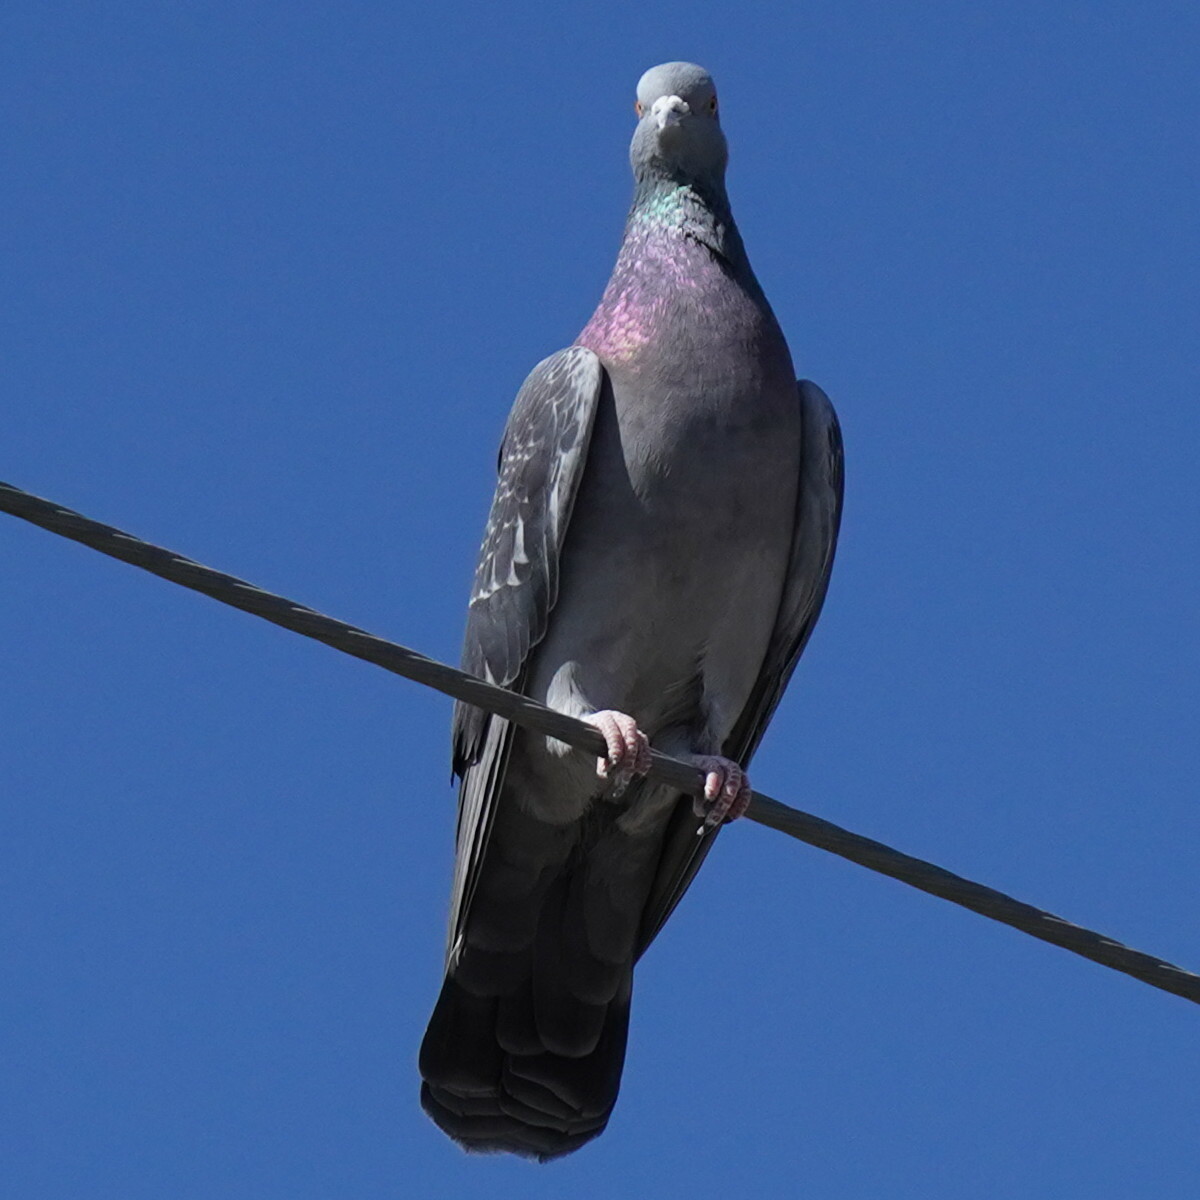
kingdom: Animalia
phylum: Chordata
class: Aves
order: Columbiformes
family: Columbidae
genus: Columba
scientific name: Columba livia
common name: Rock pigeon
